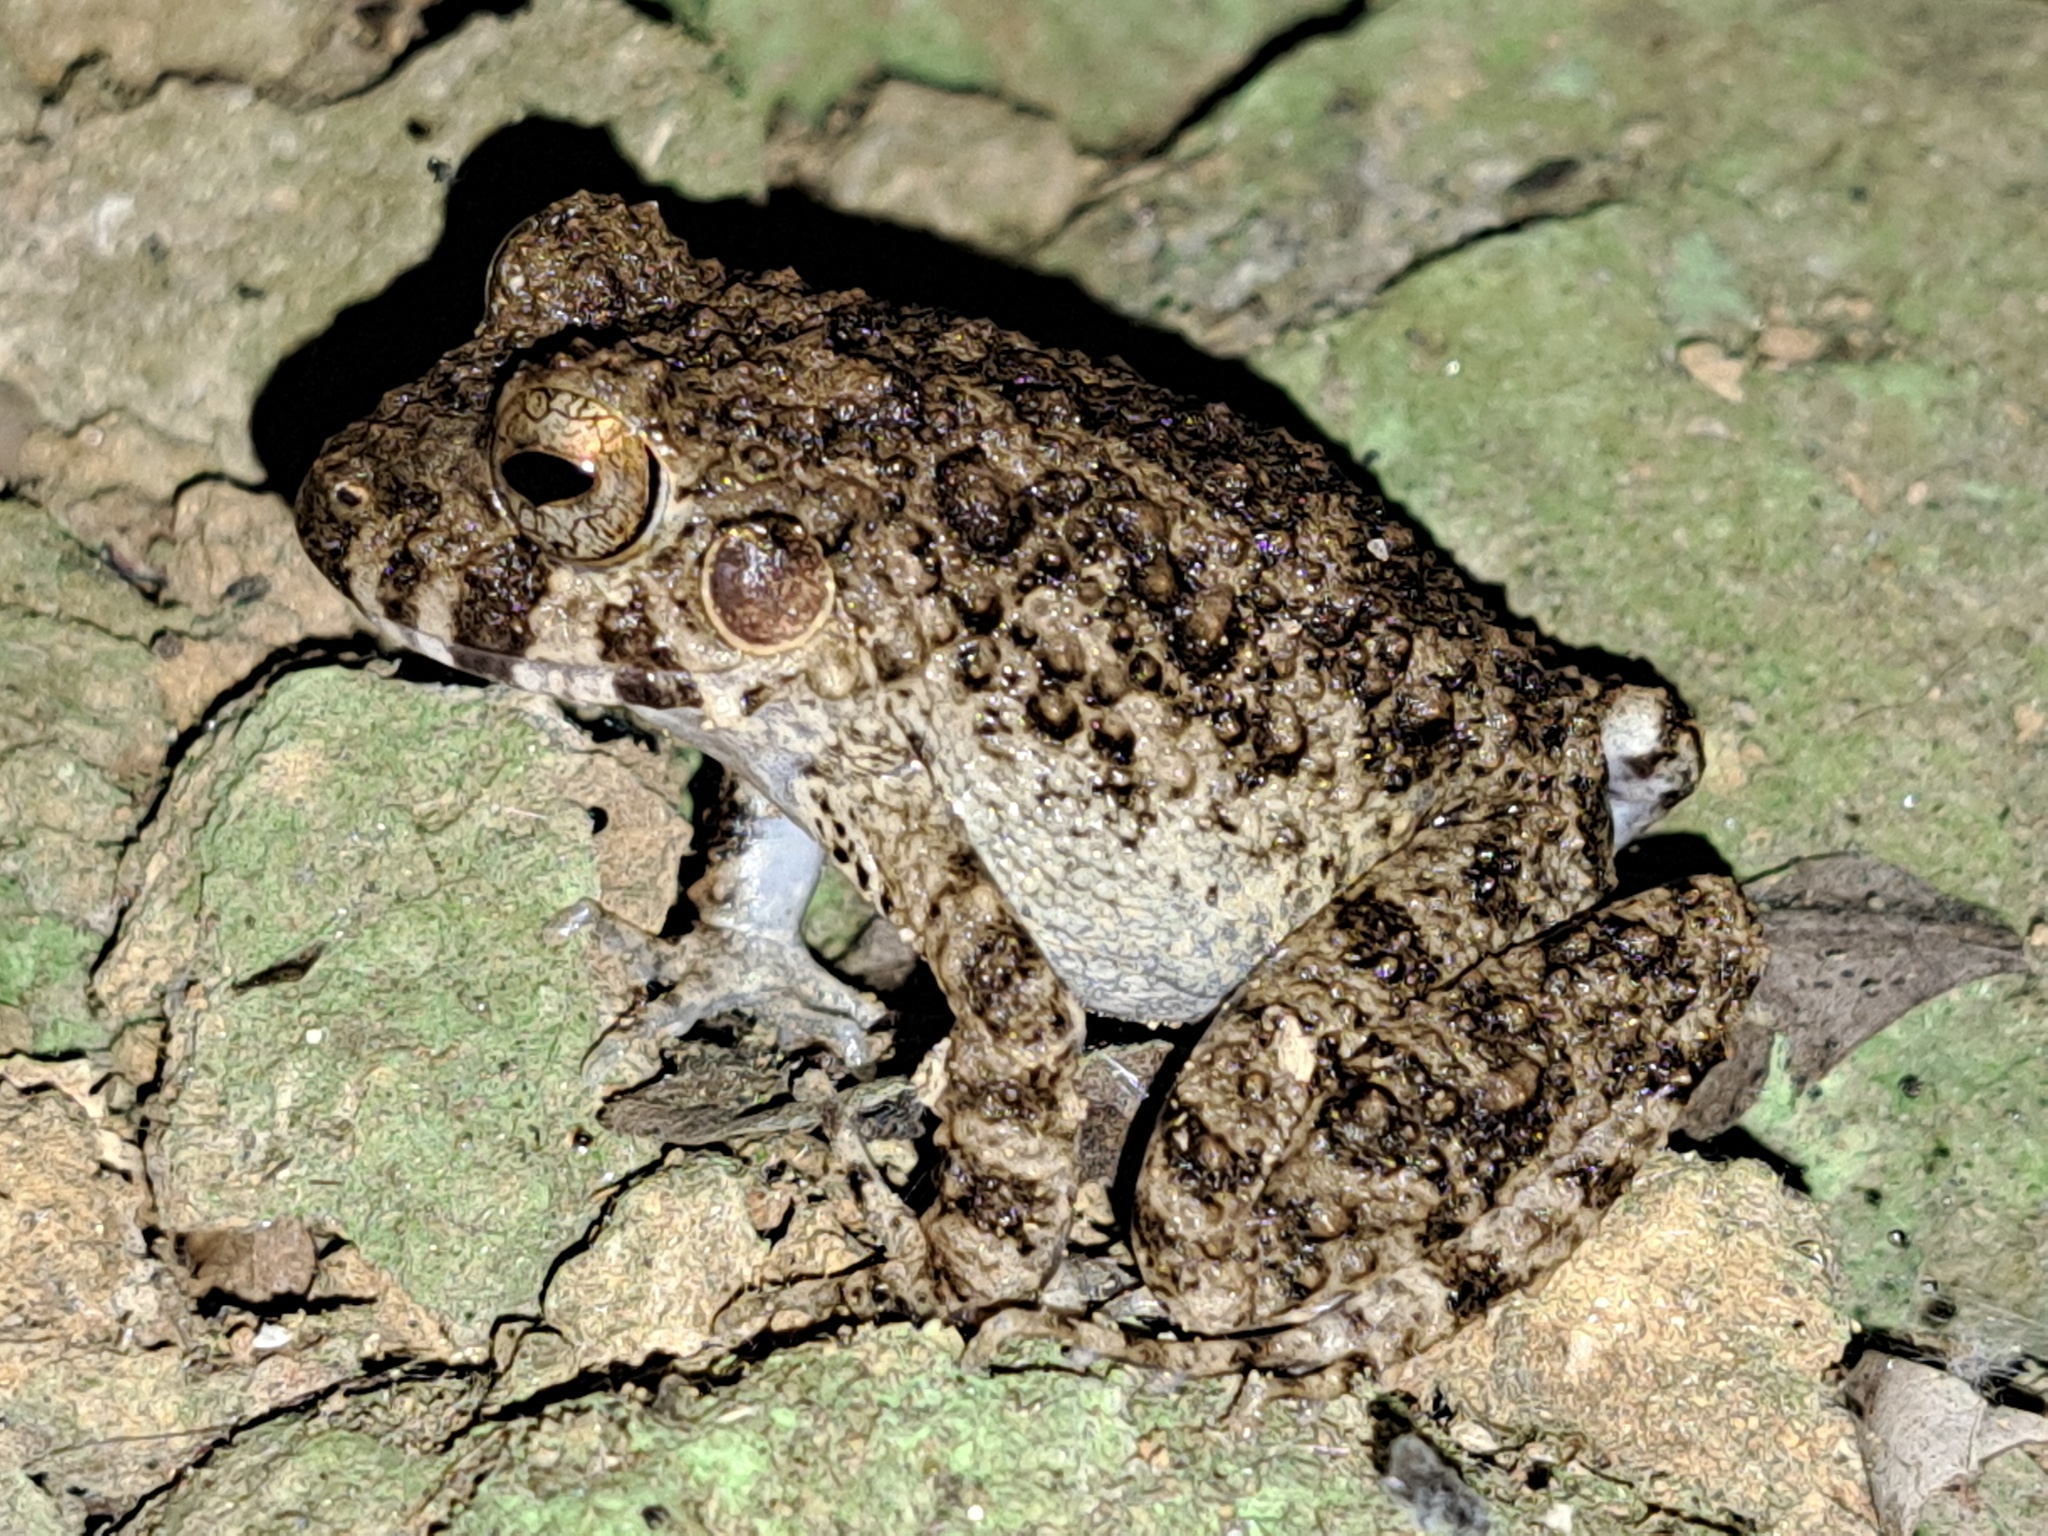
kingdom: Animalia
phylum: Chordata
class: Amphibia
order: Anura
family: Craugastoridae
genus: Oreobates
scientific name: Oreobates quixensis
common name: Common big-headed frog
